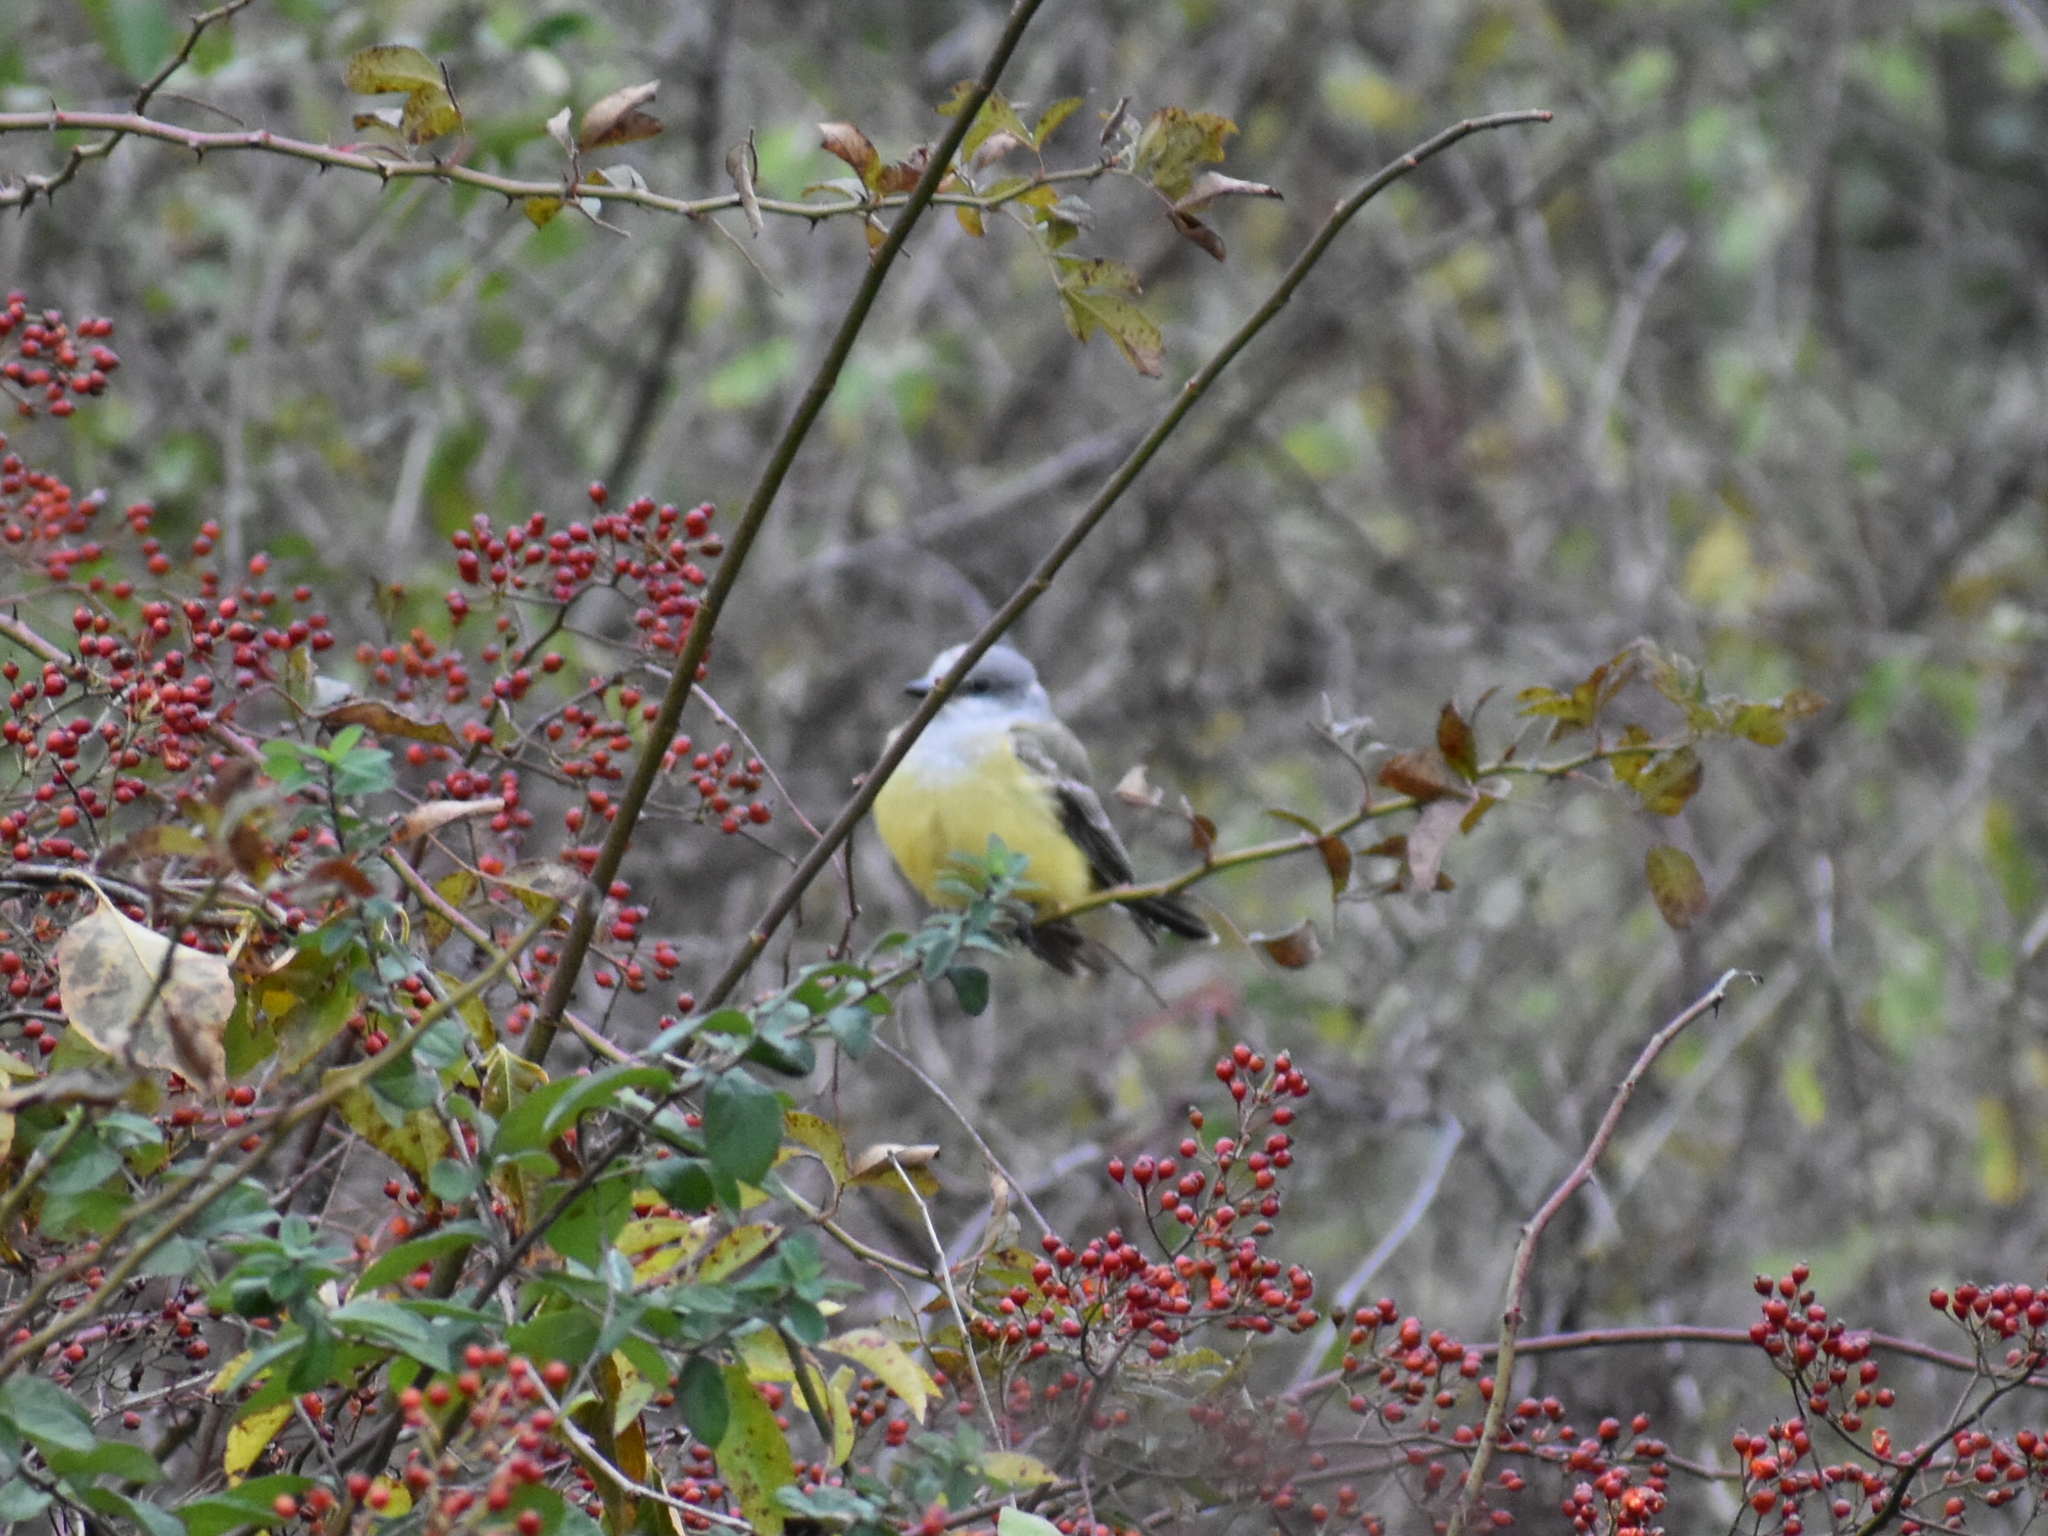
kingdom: Animalia
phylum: Chordata
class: Aves
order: Passeriformes
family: Tyrannidae
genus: Tyrannus
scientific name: Tyrannus verticalis
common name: Western kingbird
